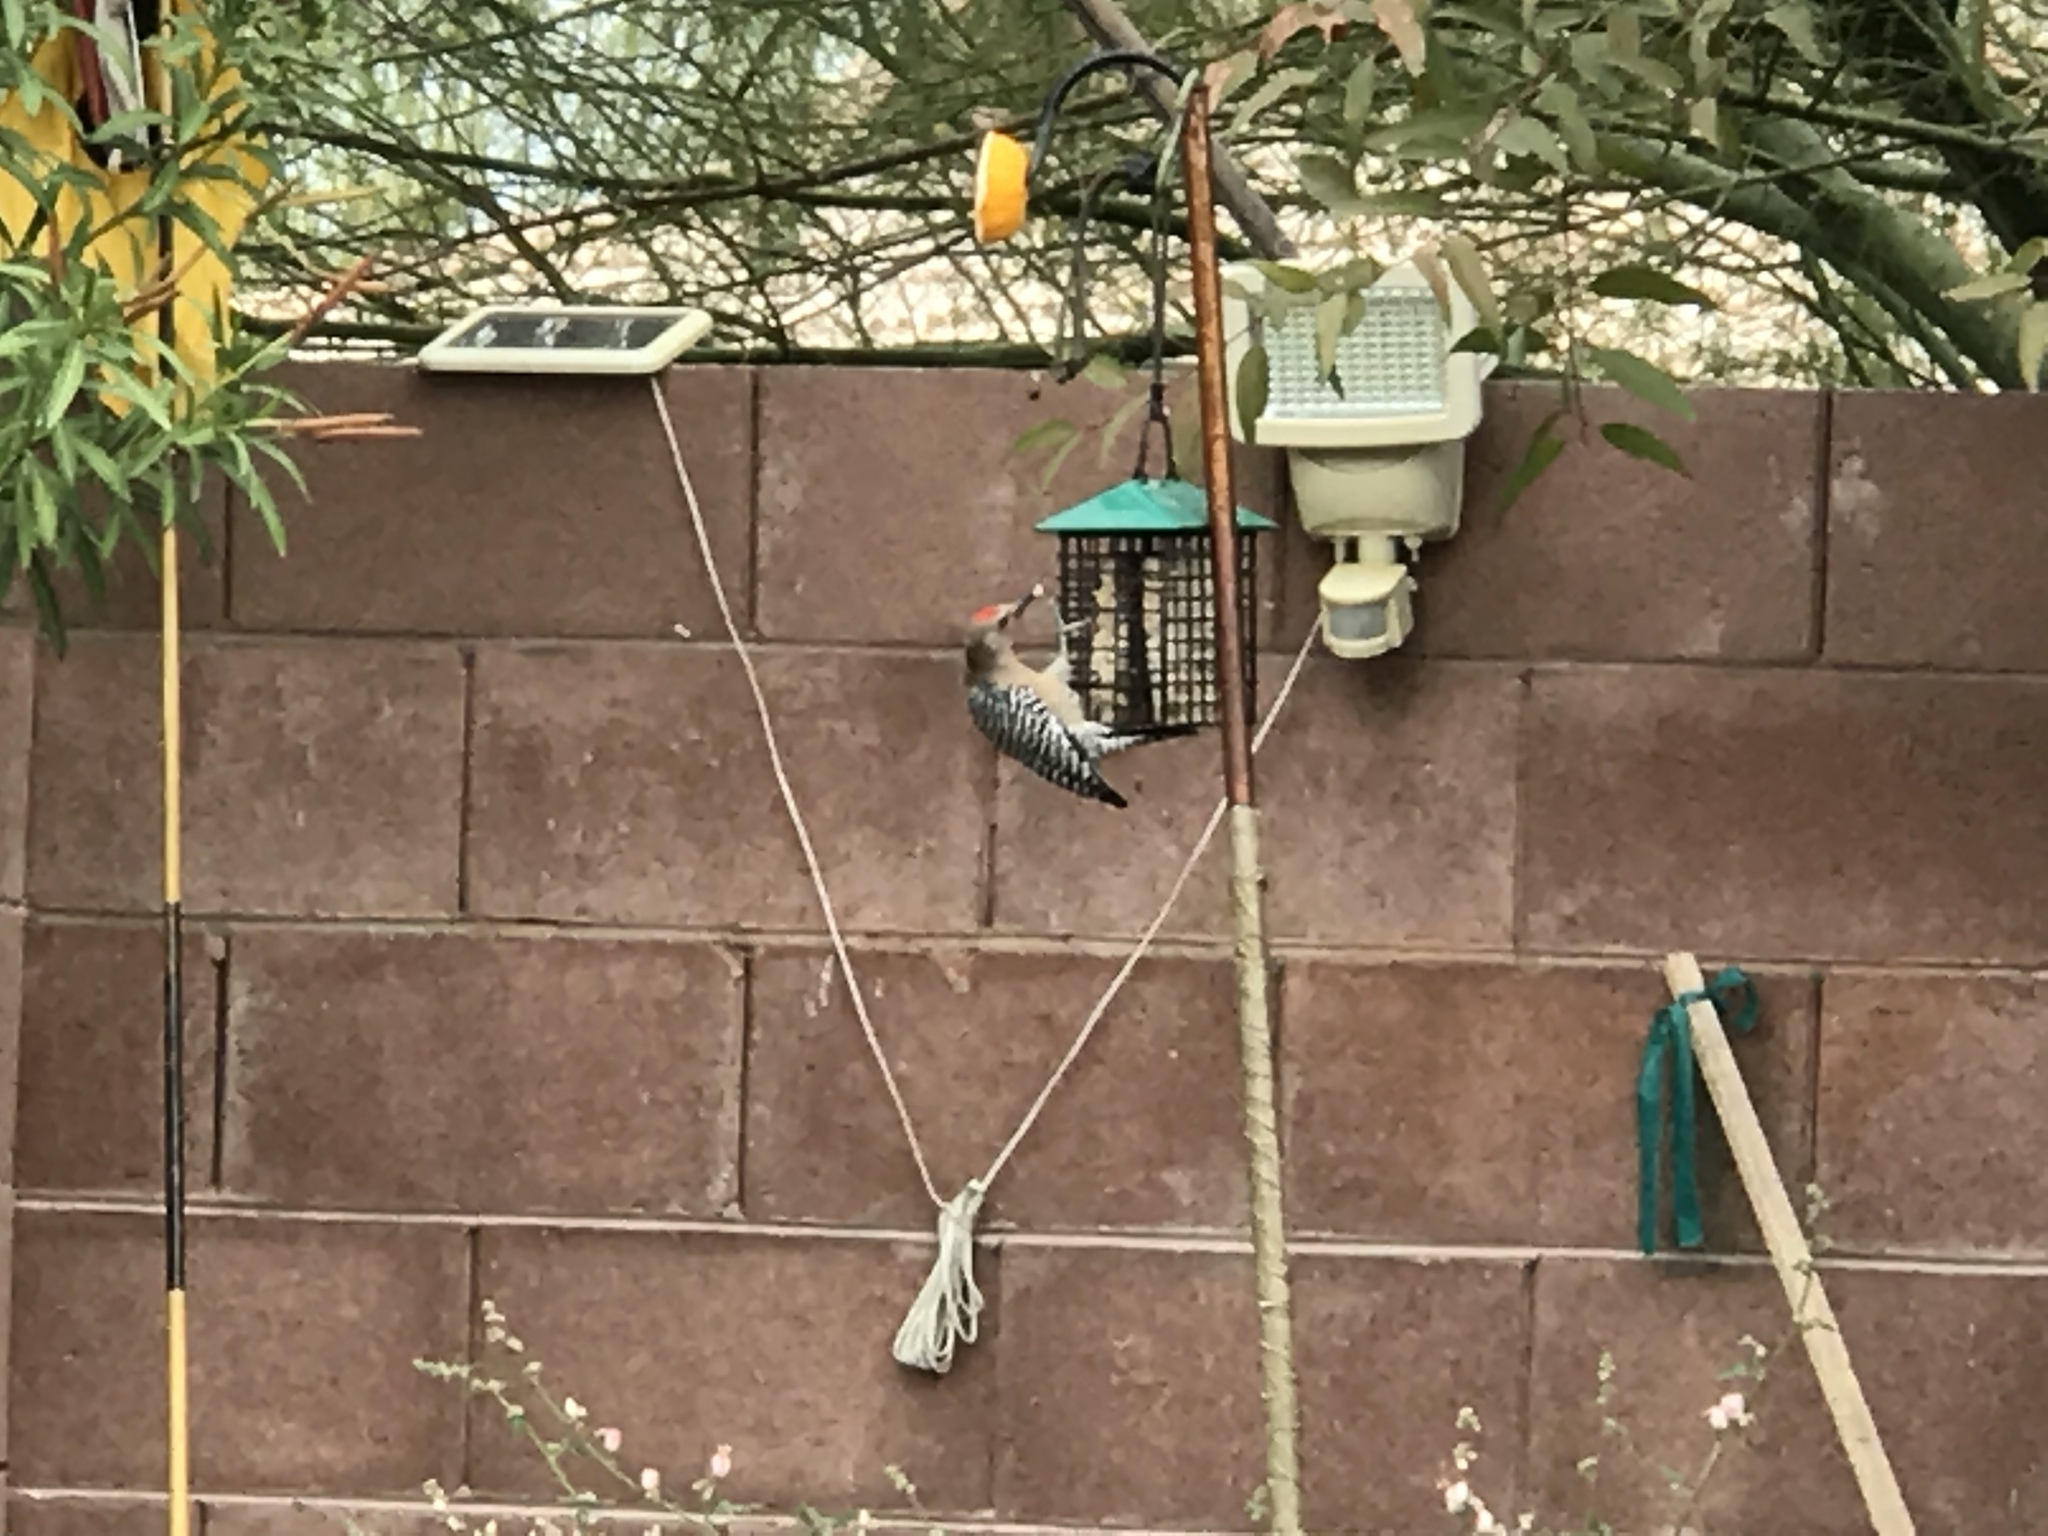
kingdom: Animalia
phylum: Chordata
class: Aves
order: Piciformes
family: Picidae
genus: Melanerpes
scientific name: Melanerpes uropygialis
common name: Gila woodpecker
